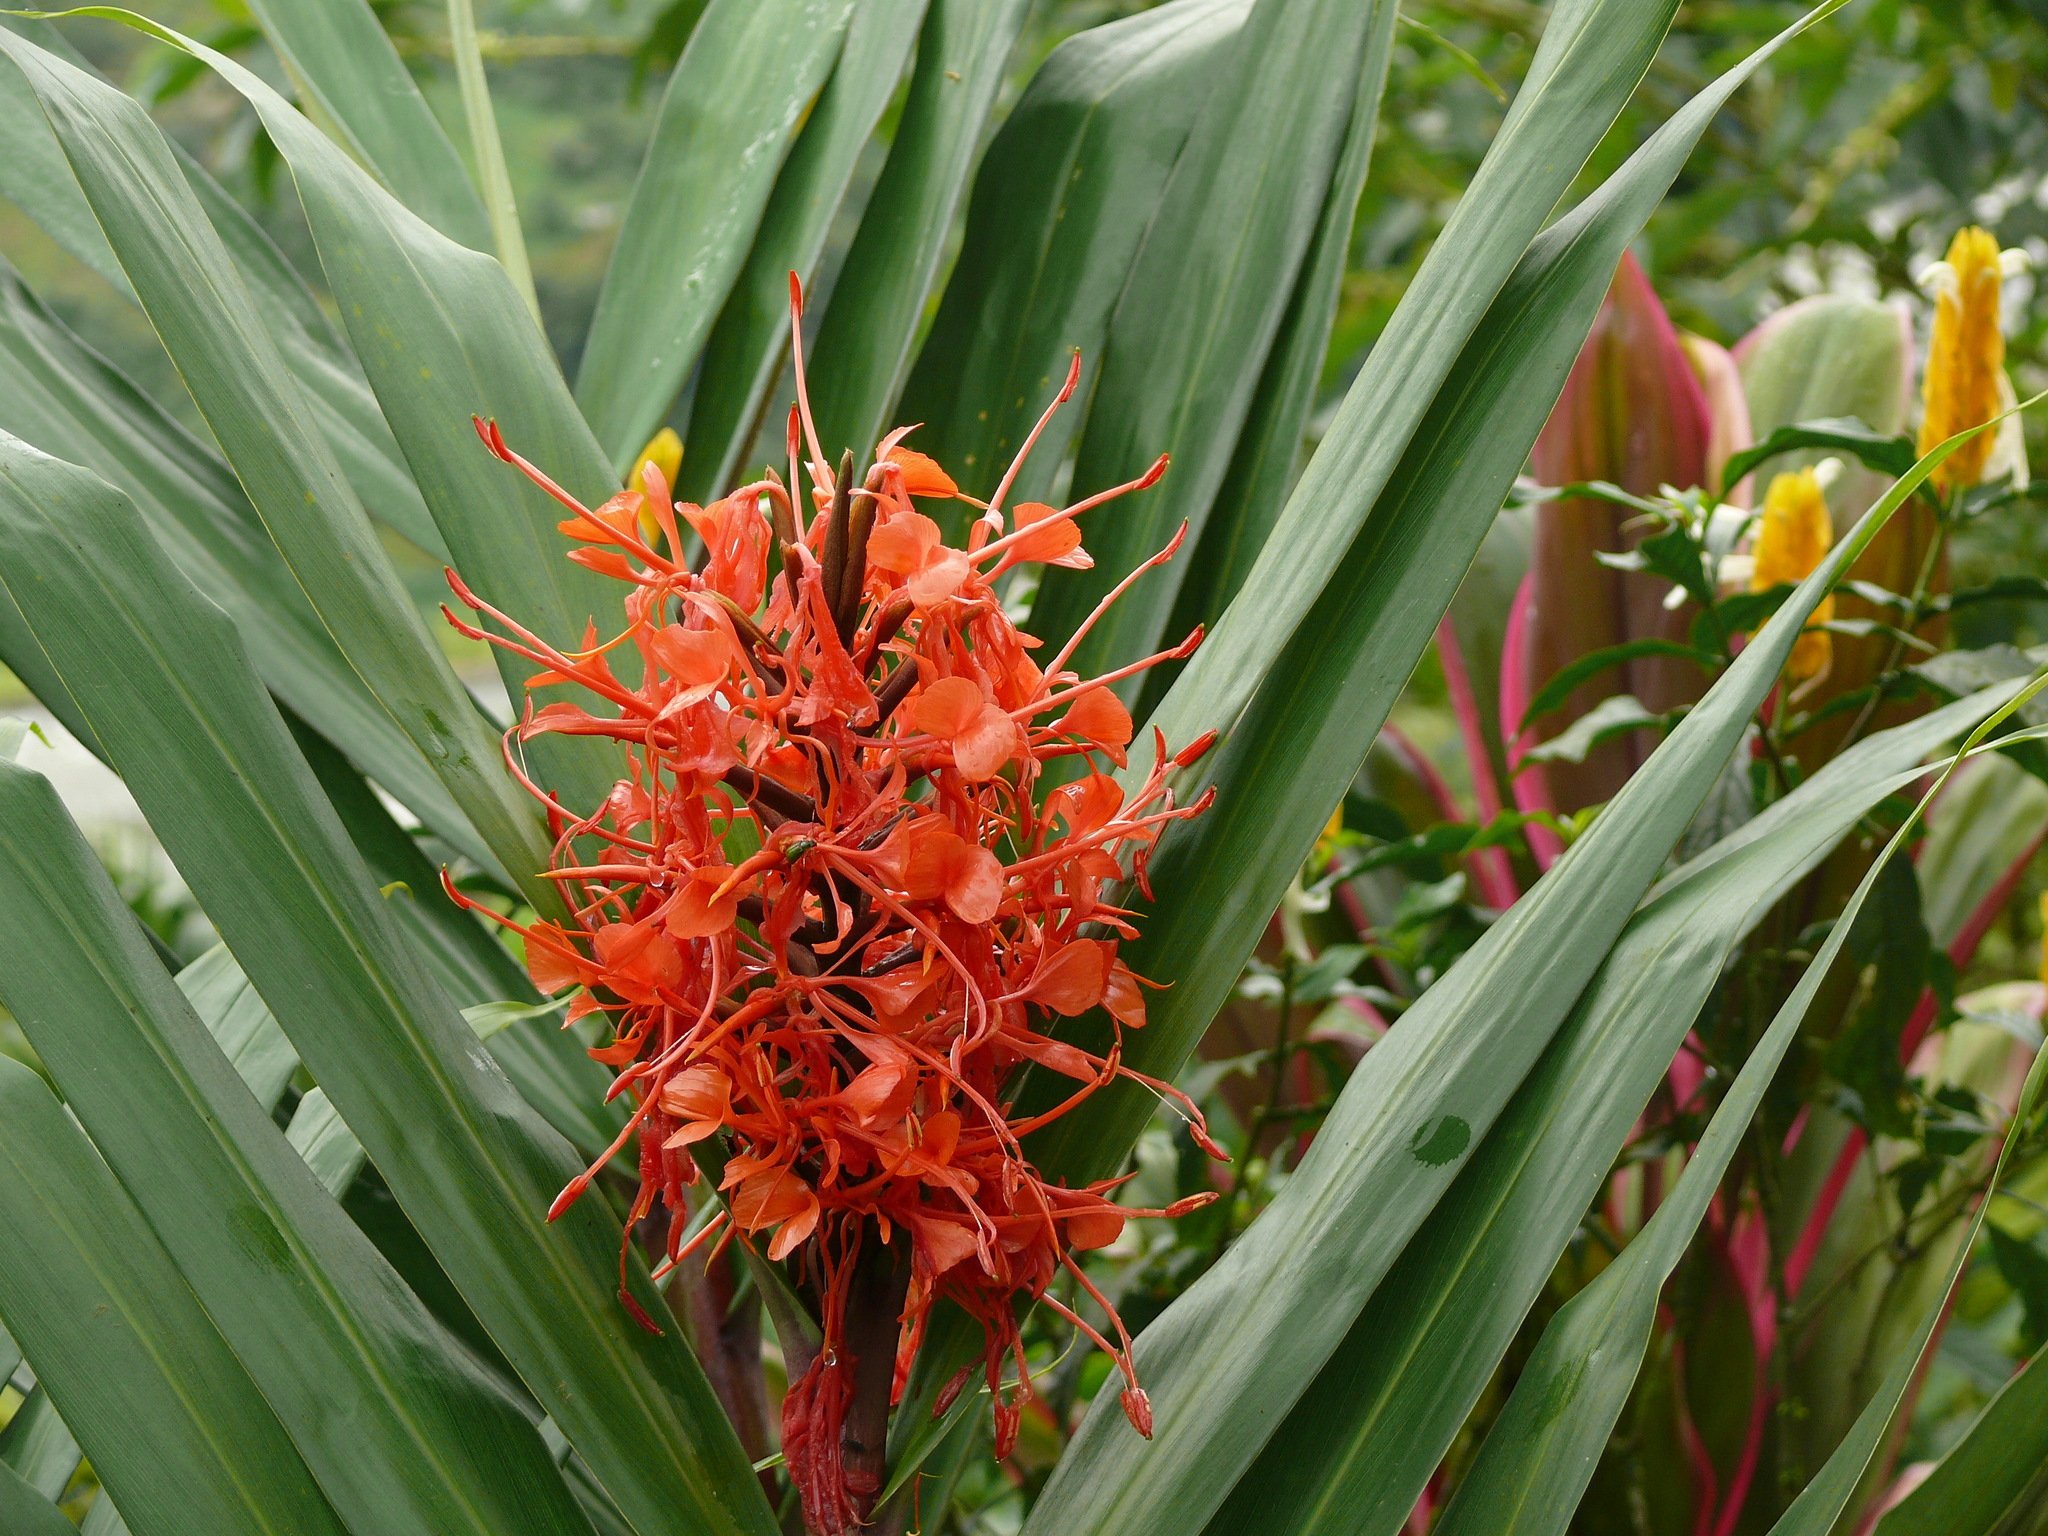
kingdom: Plantae
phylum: Tracheophyta
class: Liliopsida
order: Zingiberales
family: Zingiberaceae
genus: Hedychium
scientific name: Hedychium coccineum
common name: Red ginger-lily
